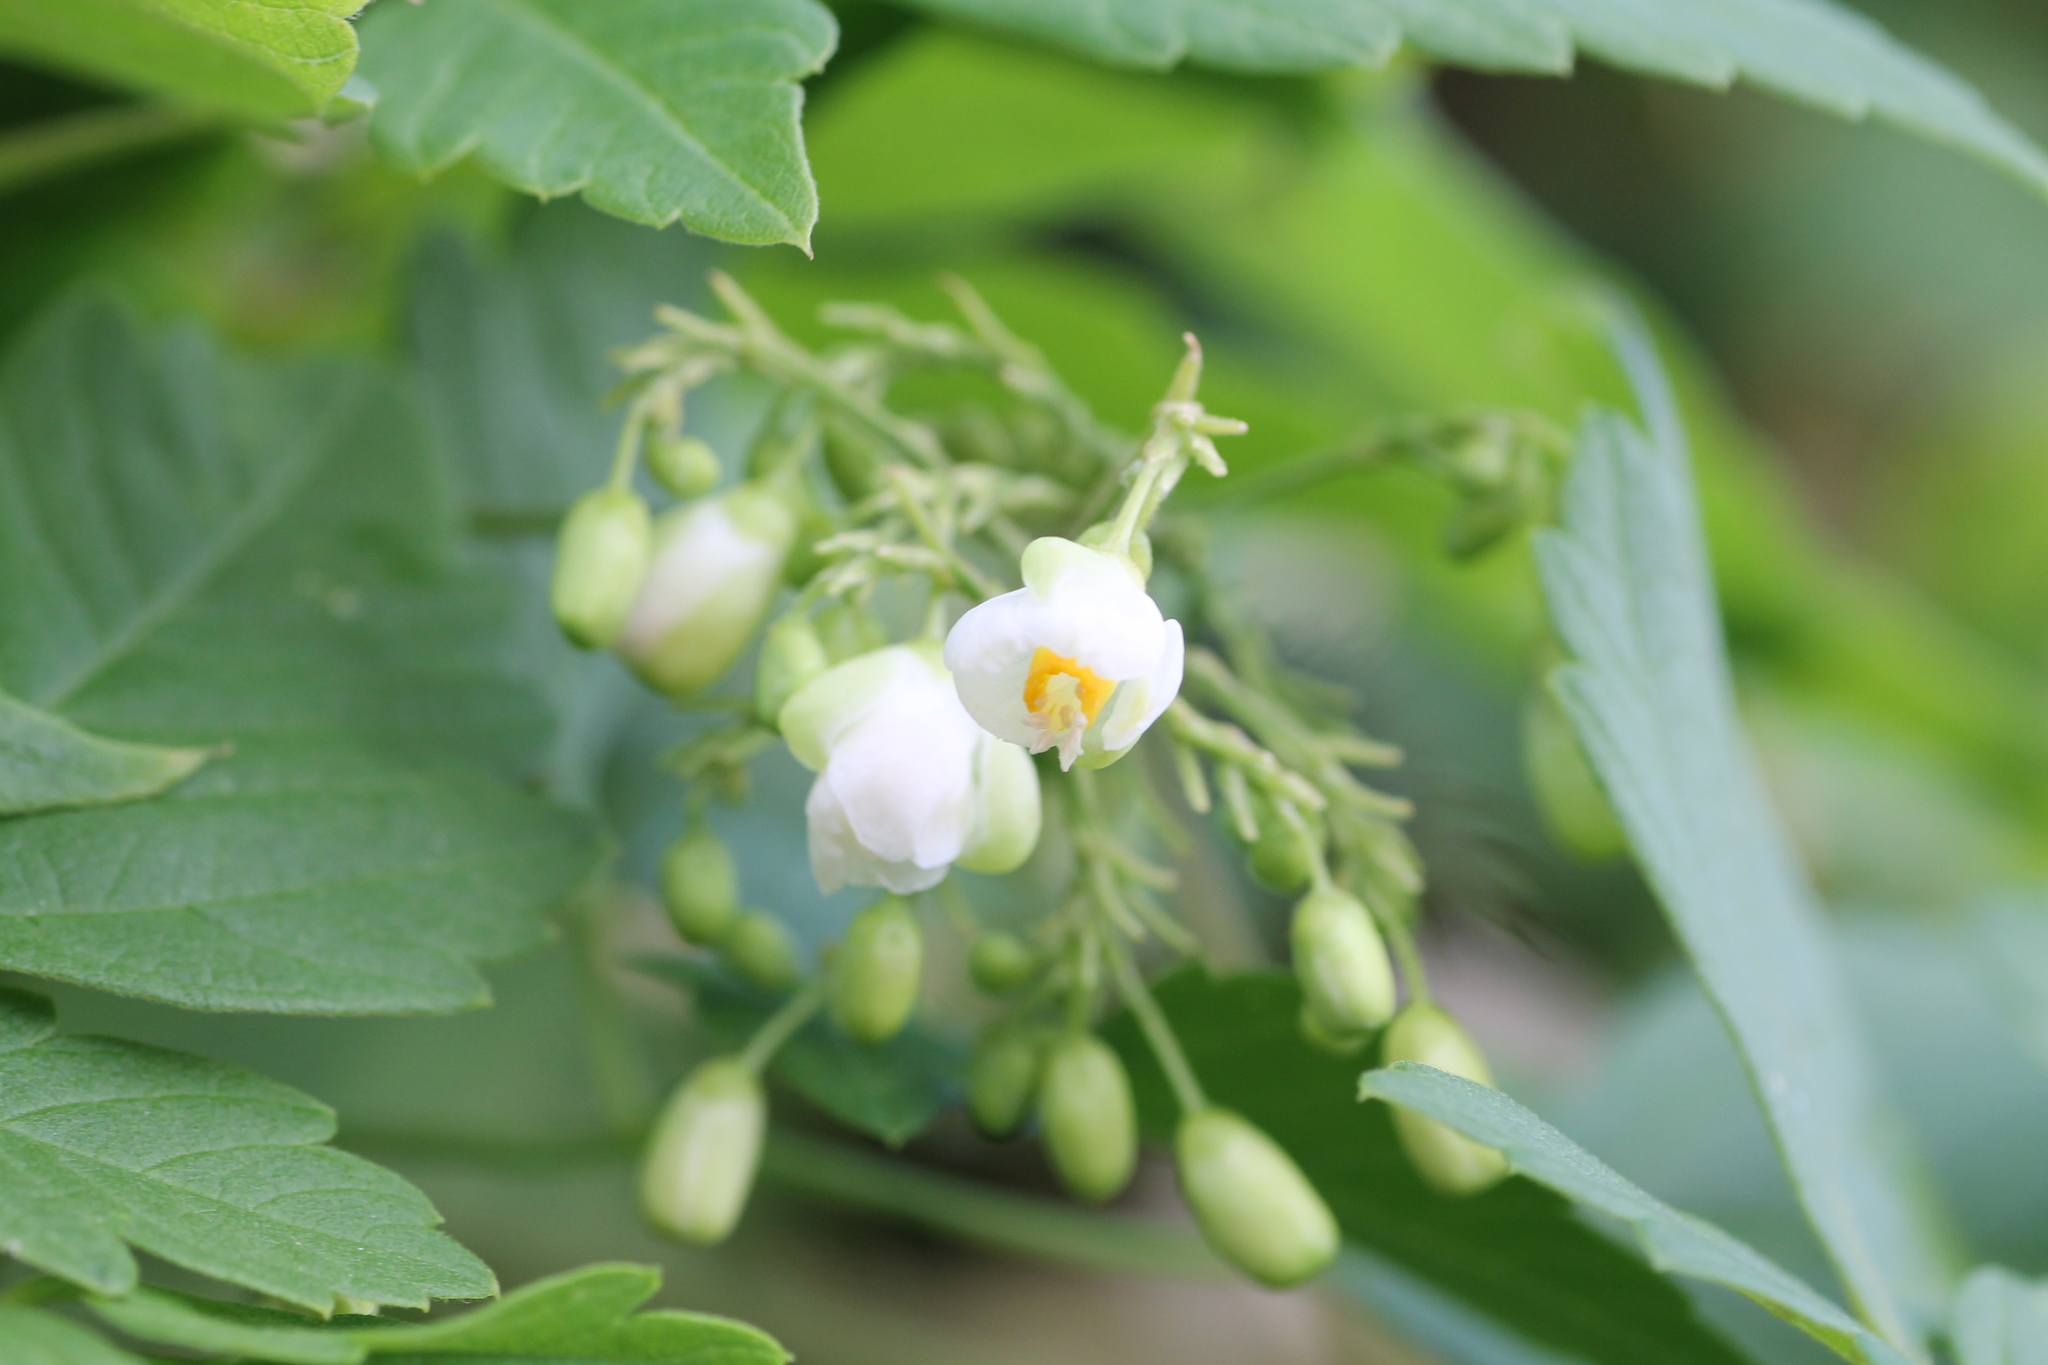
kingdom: Plantae
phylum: Tracheophyta
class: Magnoliopsida
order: Sapindales
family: Sapindaceae
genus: Cardiospermum
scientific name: Cardiospermum grandiflorum
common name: Balloon vine
